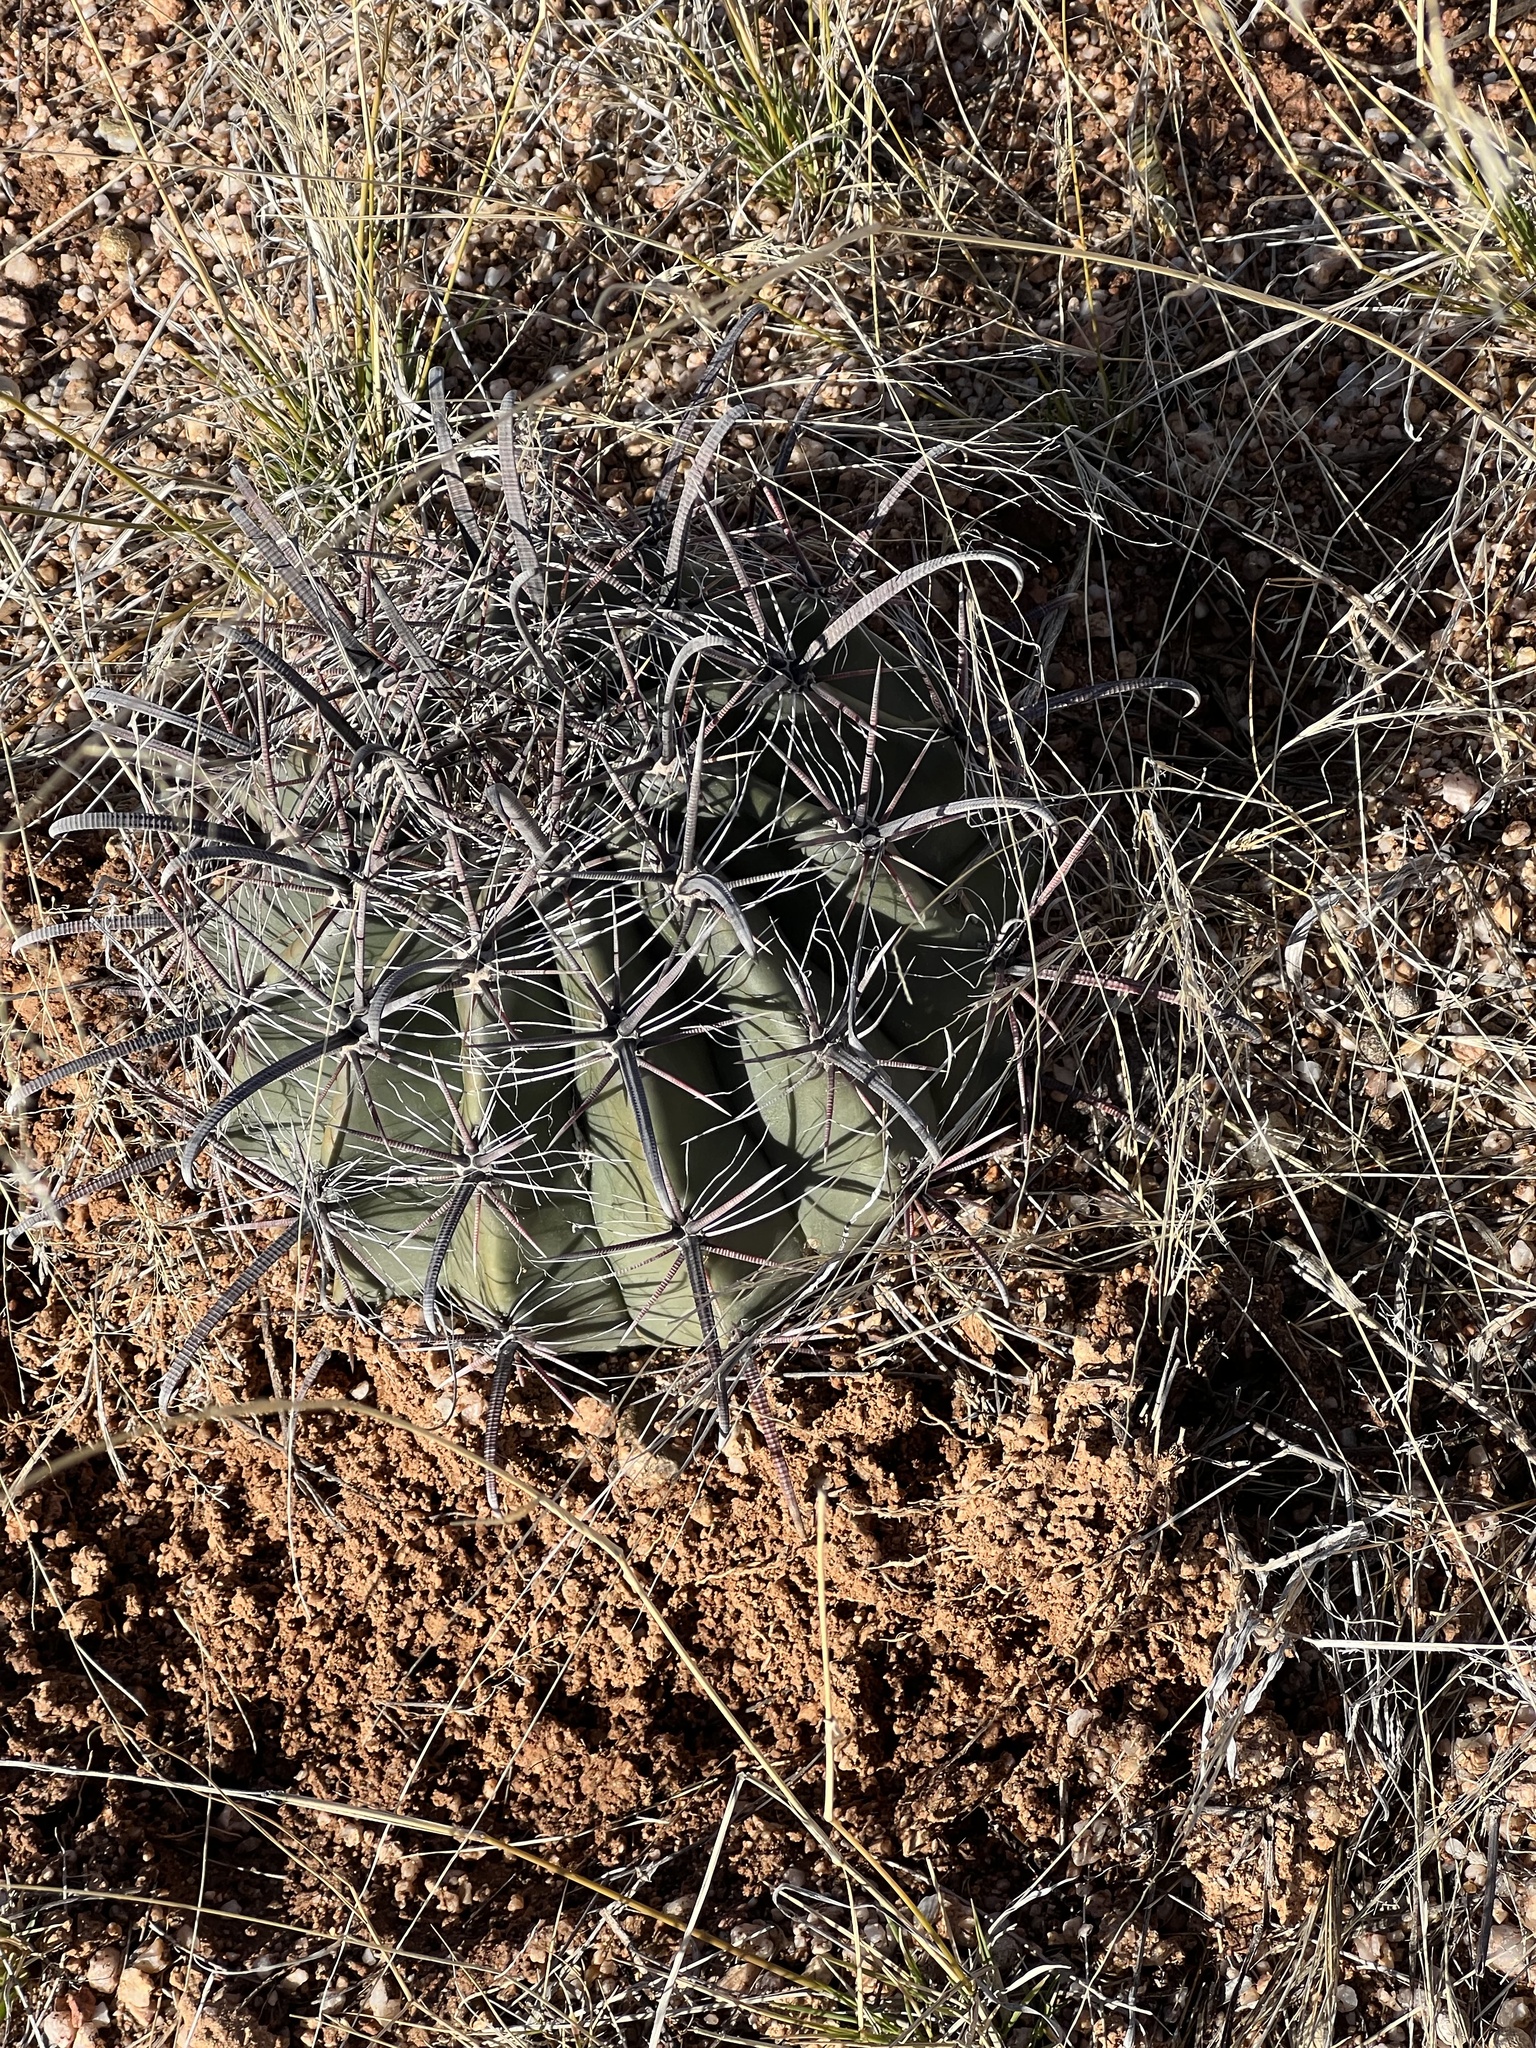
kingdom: Plantae
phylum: Tracheophyta
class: Magnoliopsida
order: Caryophyllales
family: Cactaceae
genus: Ferocactus
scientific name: Ferocactus wislizeni
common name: Candy barrel cactus
